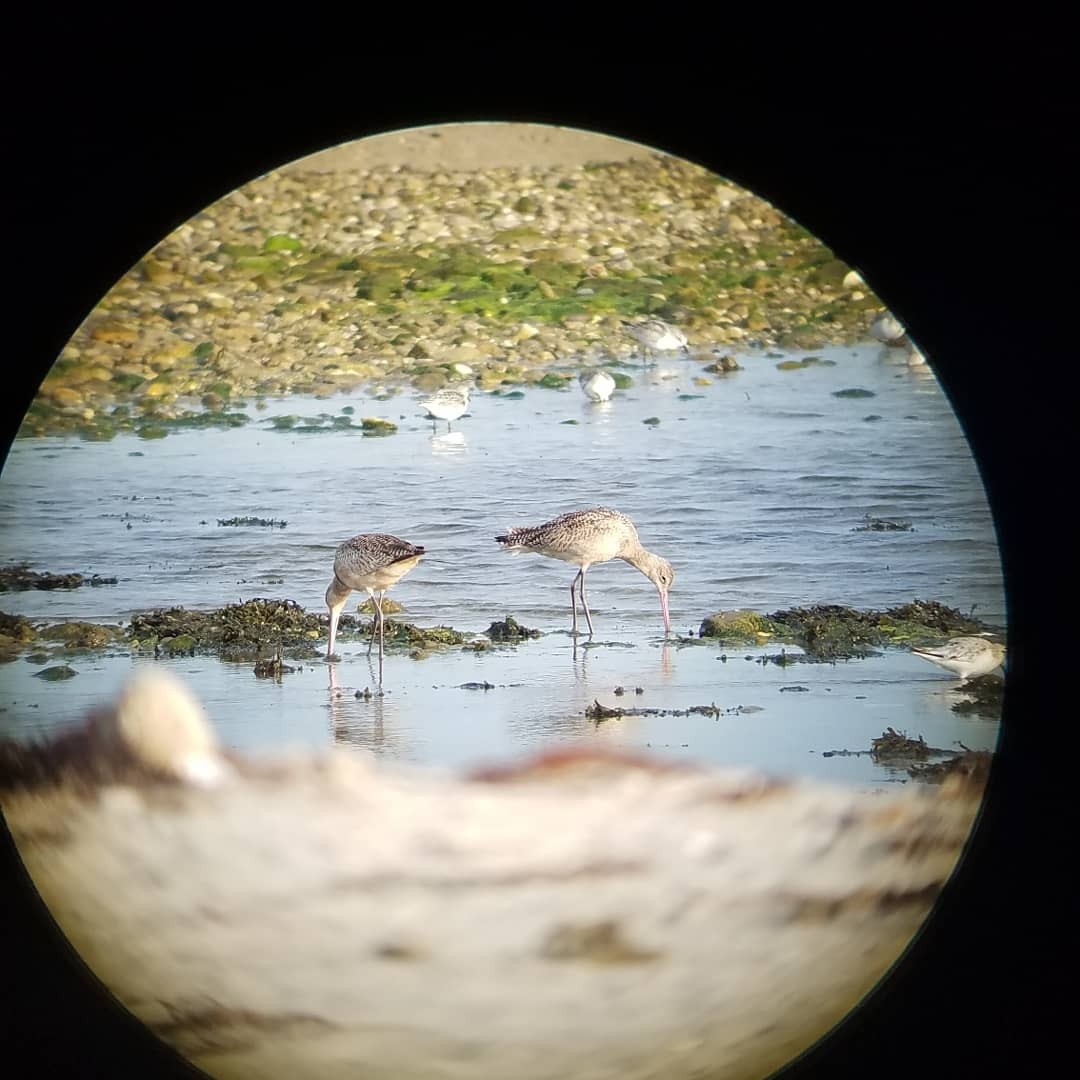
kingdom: Animalia
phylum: Chordata
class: Aves
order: Charadriiformes
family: Scolopacidae
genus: Limosa
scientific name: Limosa fedoa
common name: Marbled godwit
